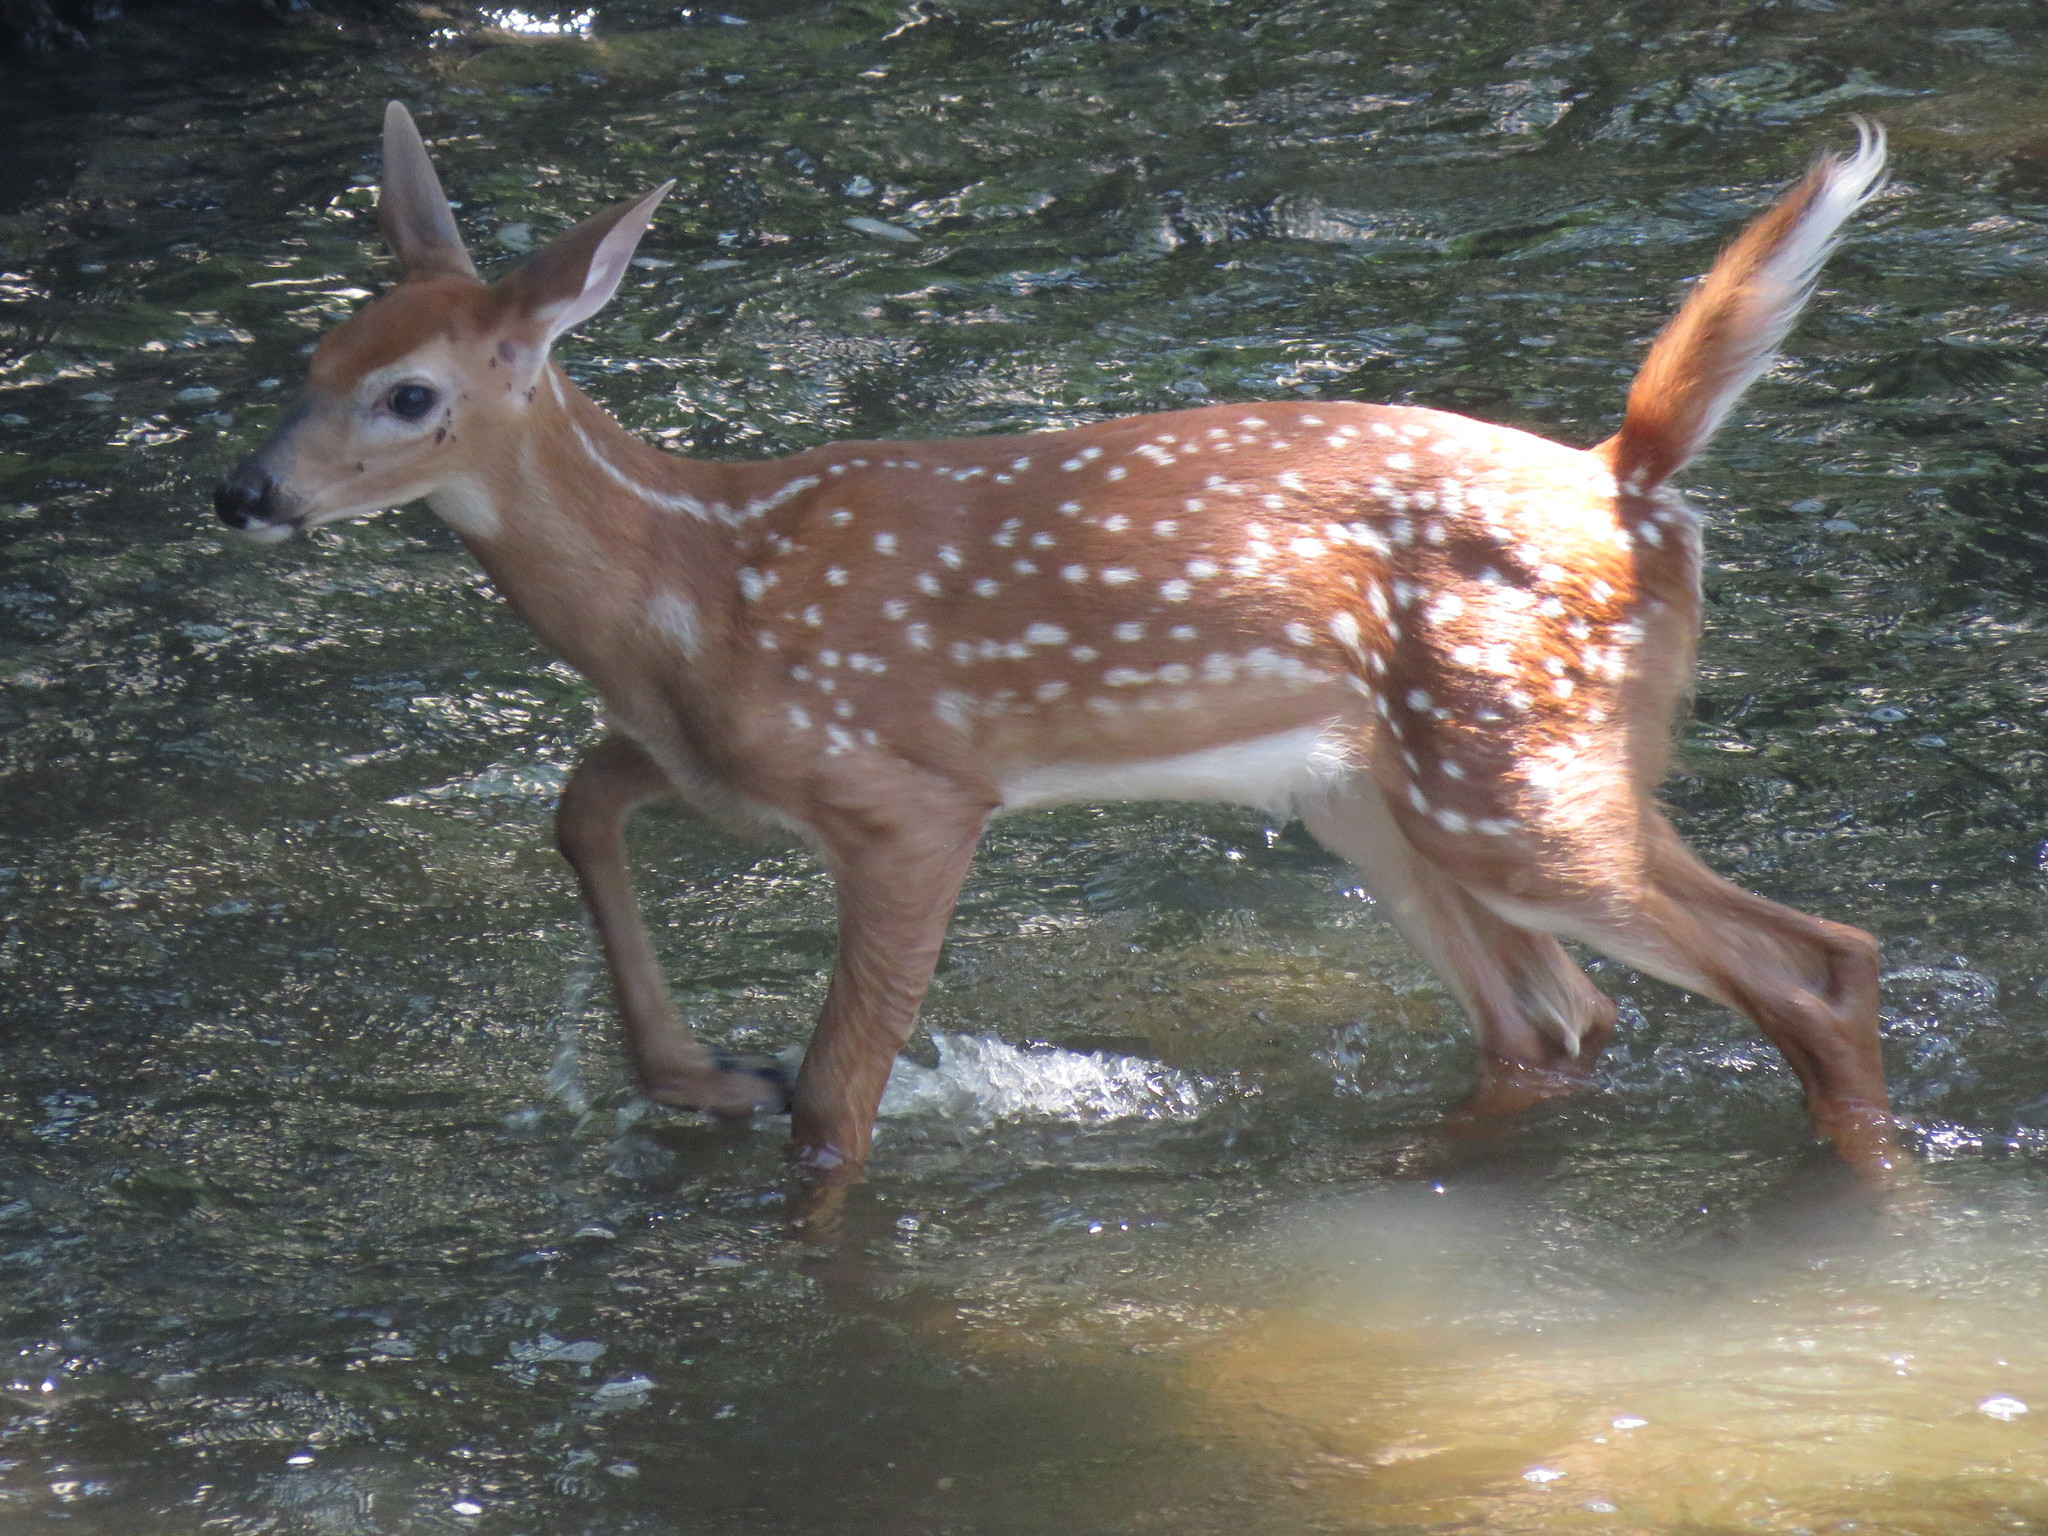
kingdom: Animalia
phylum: Chordata
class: Mammalia
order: Artiodactyla
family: Cervidae
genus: Odocoileus
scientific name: Odocoileus virginianus
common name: White-tailed deer
